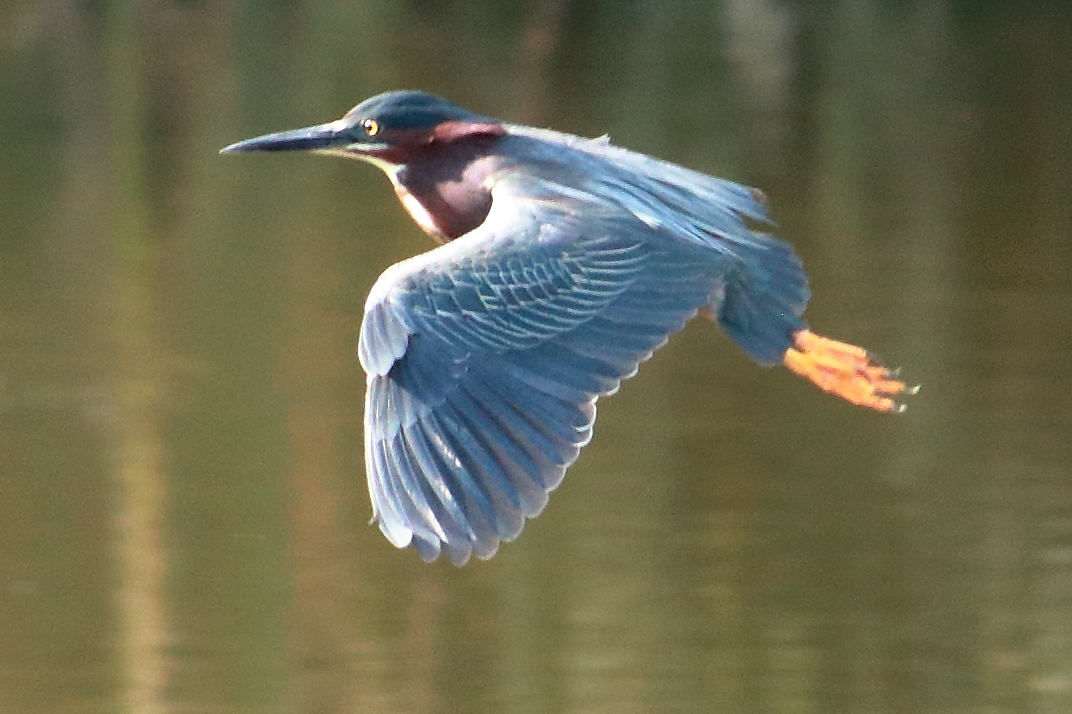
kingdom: Animalia
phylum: Chordata
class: Aves
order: Pelecaniformes
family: Ardeidae
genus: Butorides
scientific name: Butorides virescens
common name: Green heron
